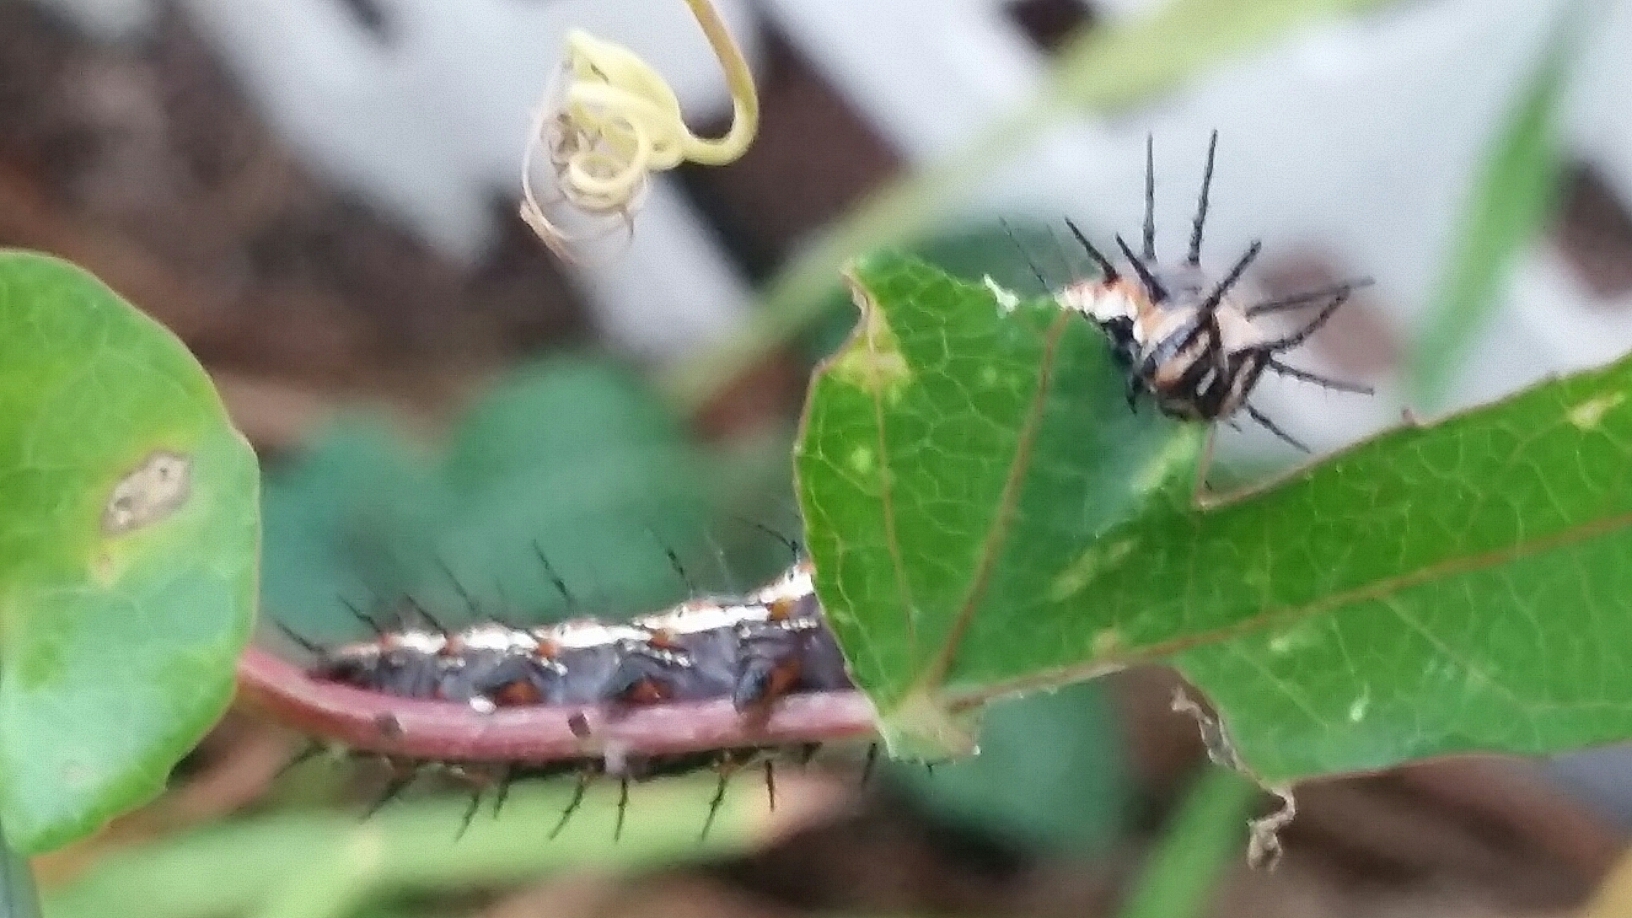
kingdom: Animalia
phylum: Arthropoda
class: Insecta
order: Lepidoptera
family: Nymphalidae
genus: Dione
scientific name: Dione vanillae
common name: Gulf fritillary
